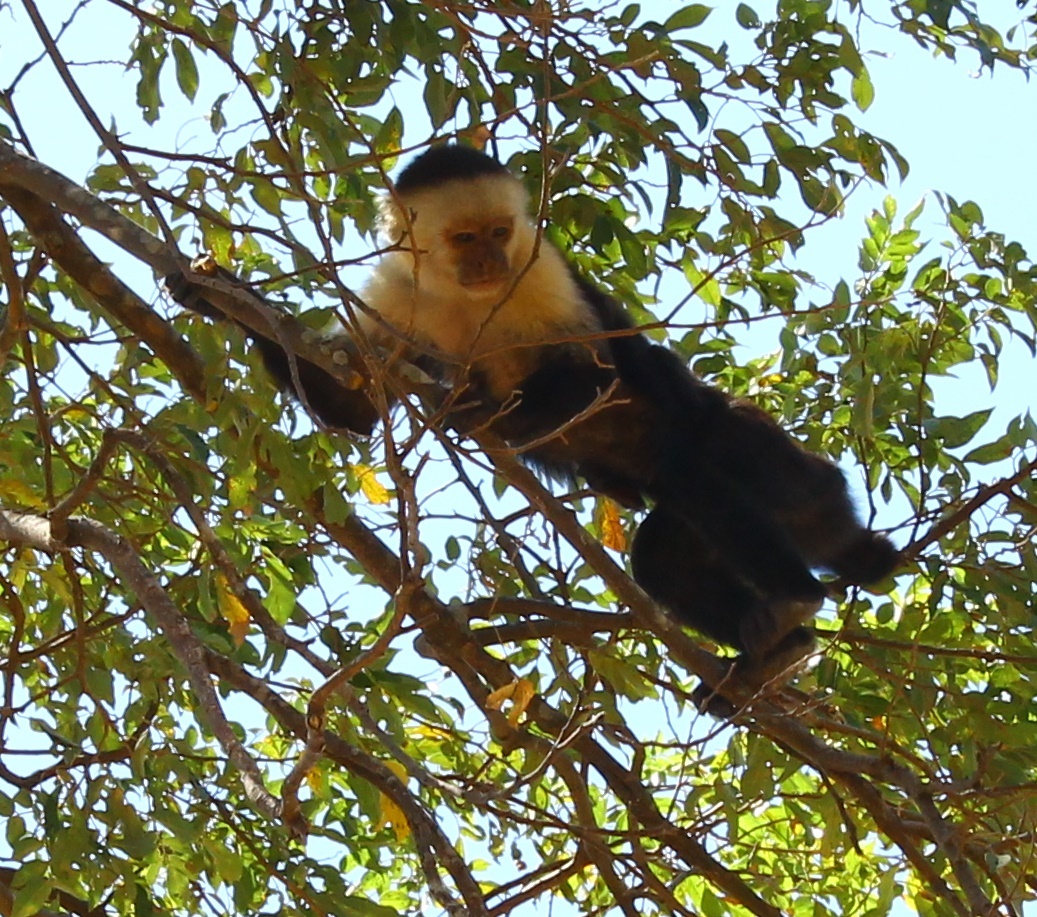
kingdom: Animalia
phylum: Chordata
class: Mammalia
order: Primates
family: Cebidae
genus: Cebus
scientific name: Cebus imitator
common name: Panamanian white-faced capuchin
